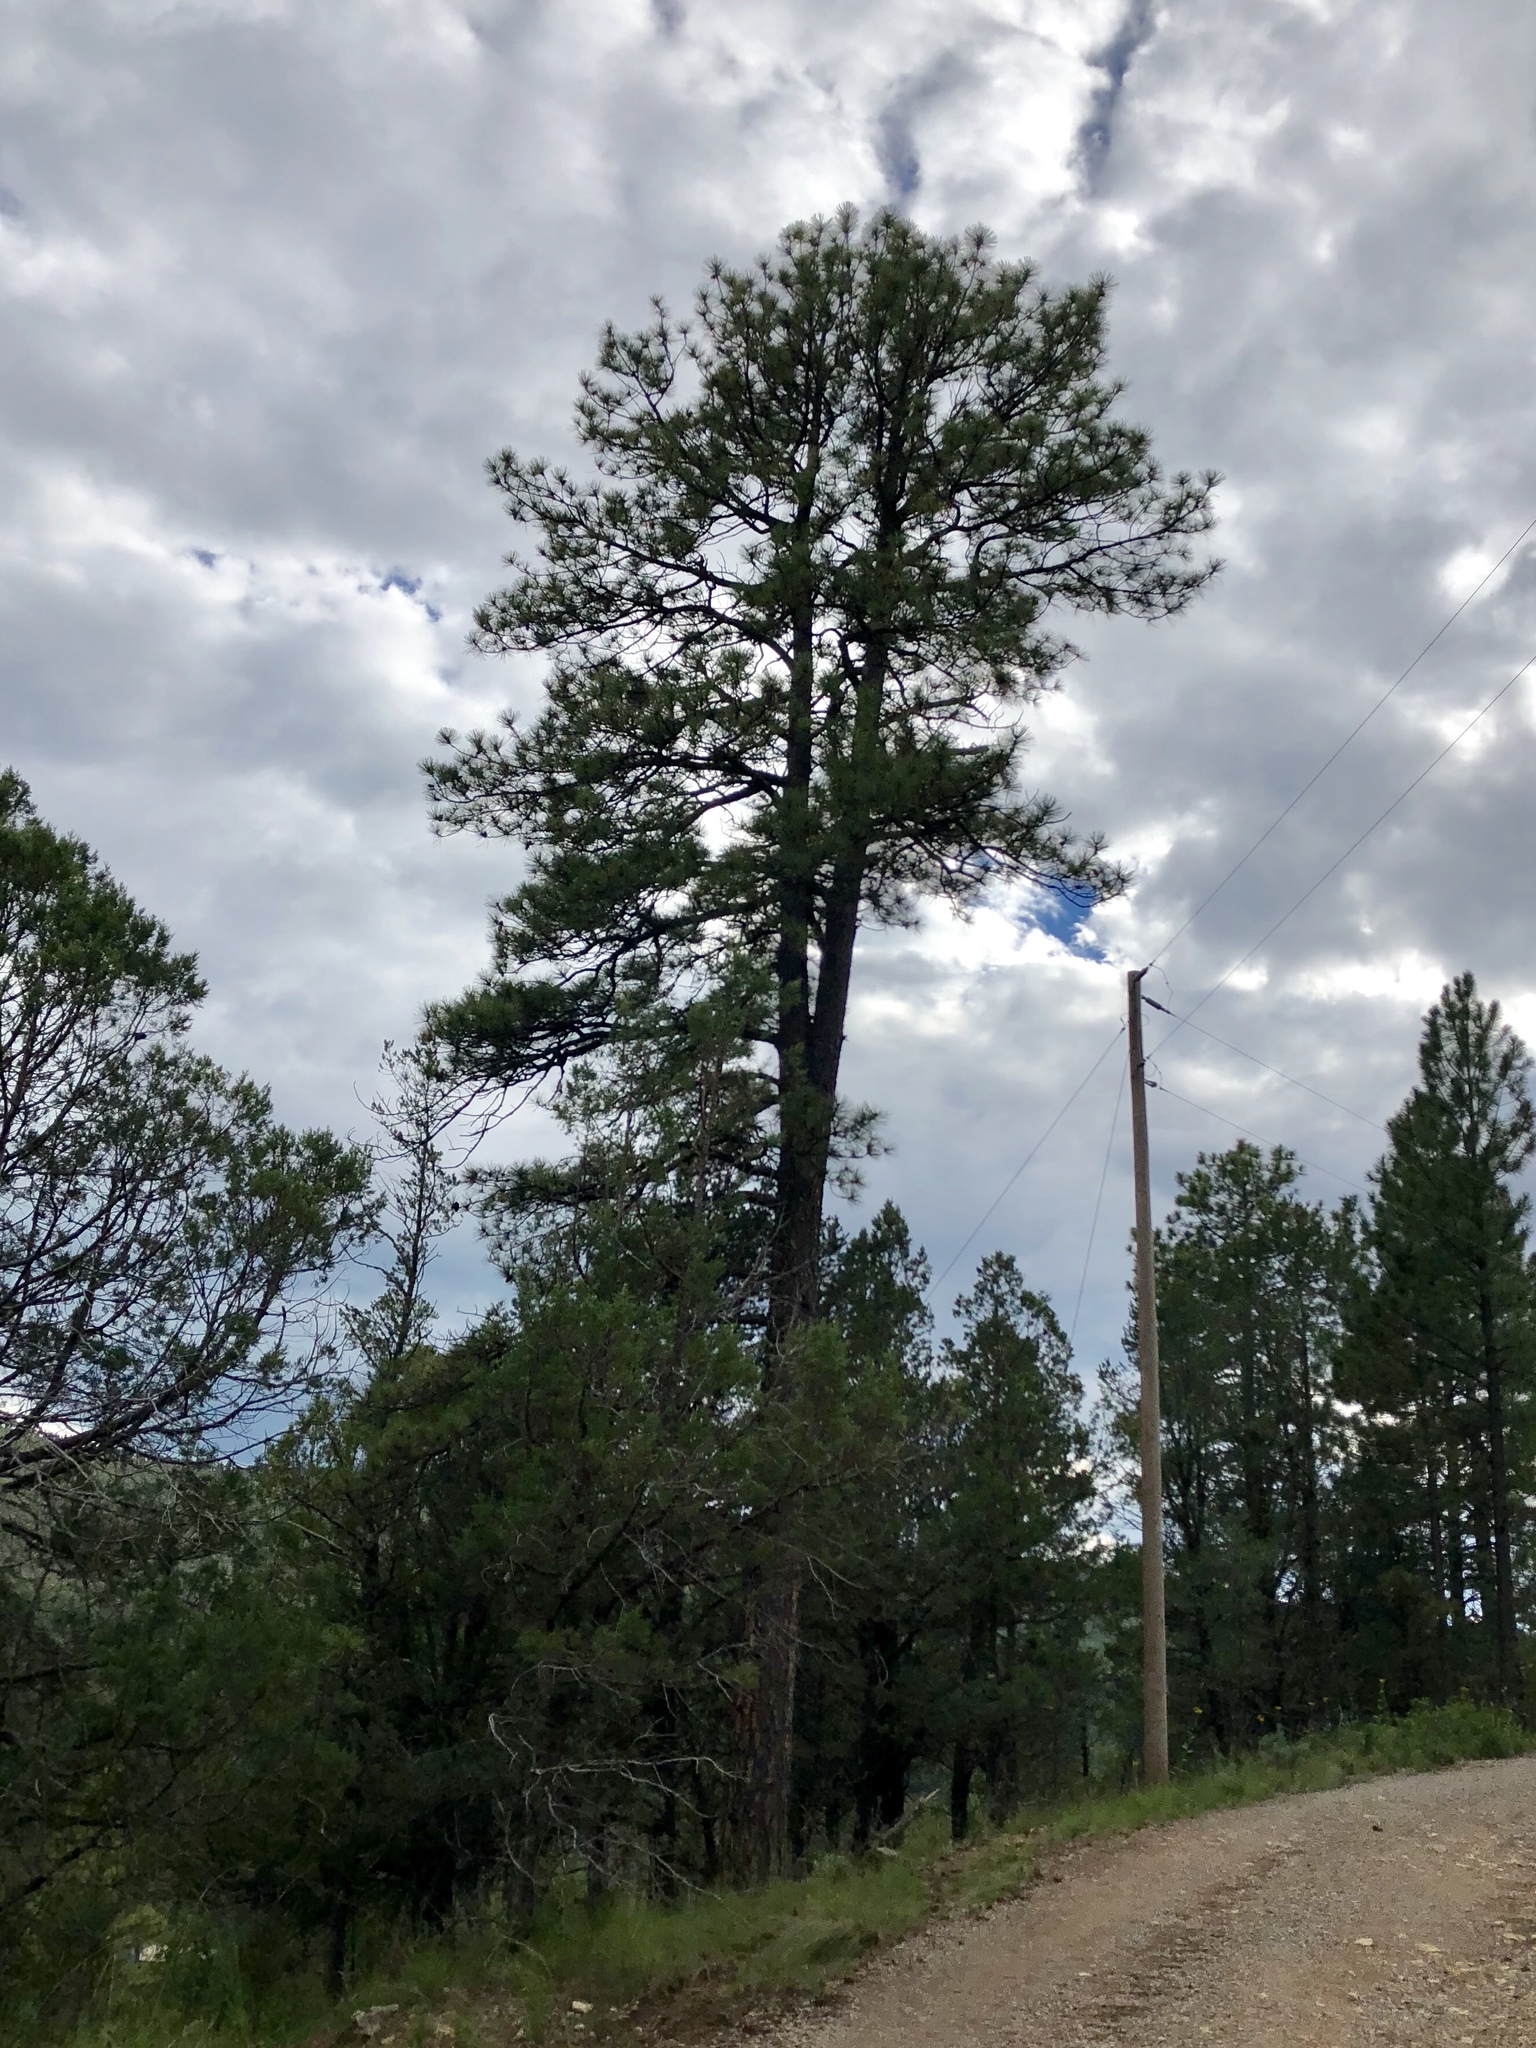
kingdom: Plantae
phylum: Tracheophyta
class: Pinopsida
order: Pinales
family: Pinaceae
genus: Pinus
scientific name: Pinus ponderosa
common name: Western yellow-pine
